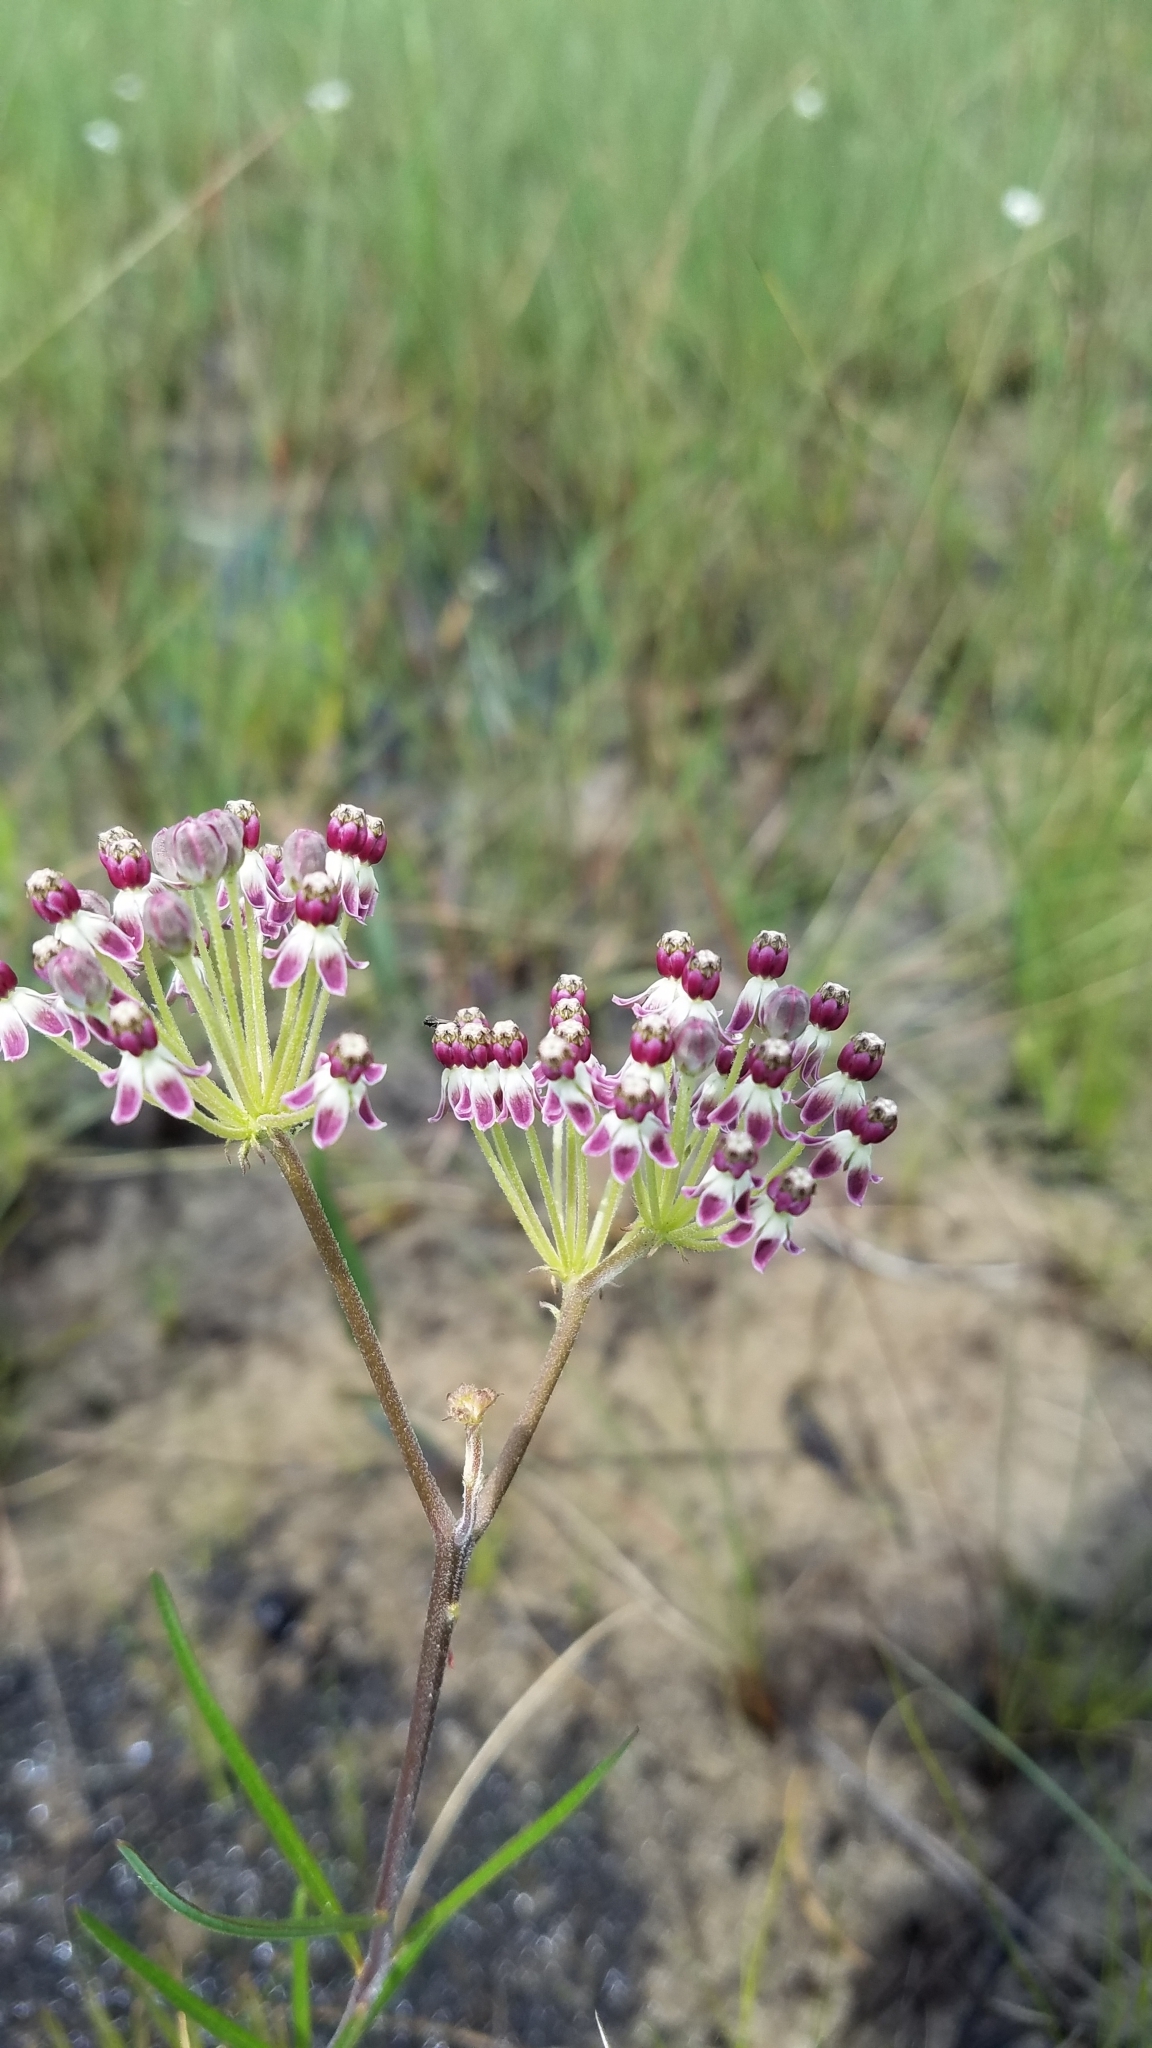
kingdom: Plantae
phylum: Tracheophyta
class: Magnoliopsida
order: Gentianales
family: Apocynaceae
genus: Asclepias
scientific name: Asclepias longifolia
